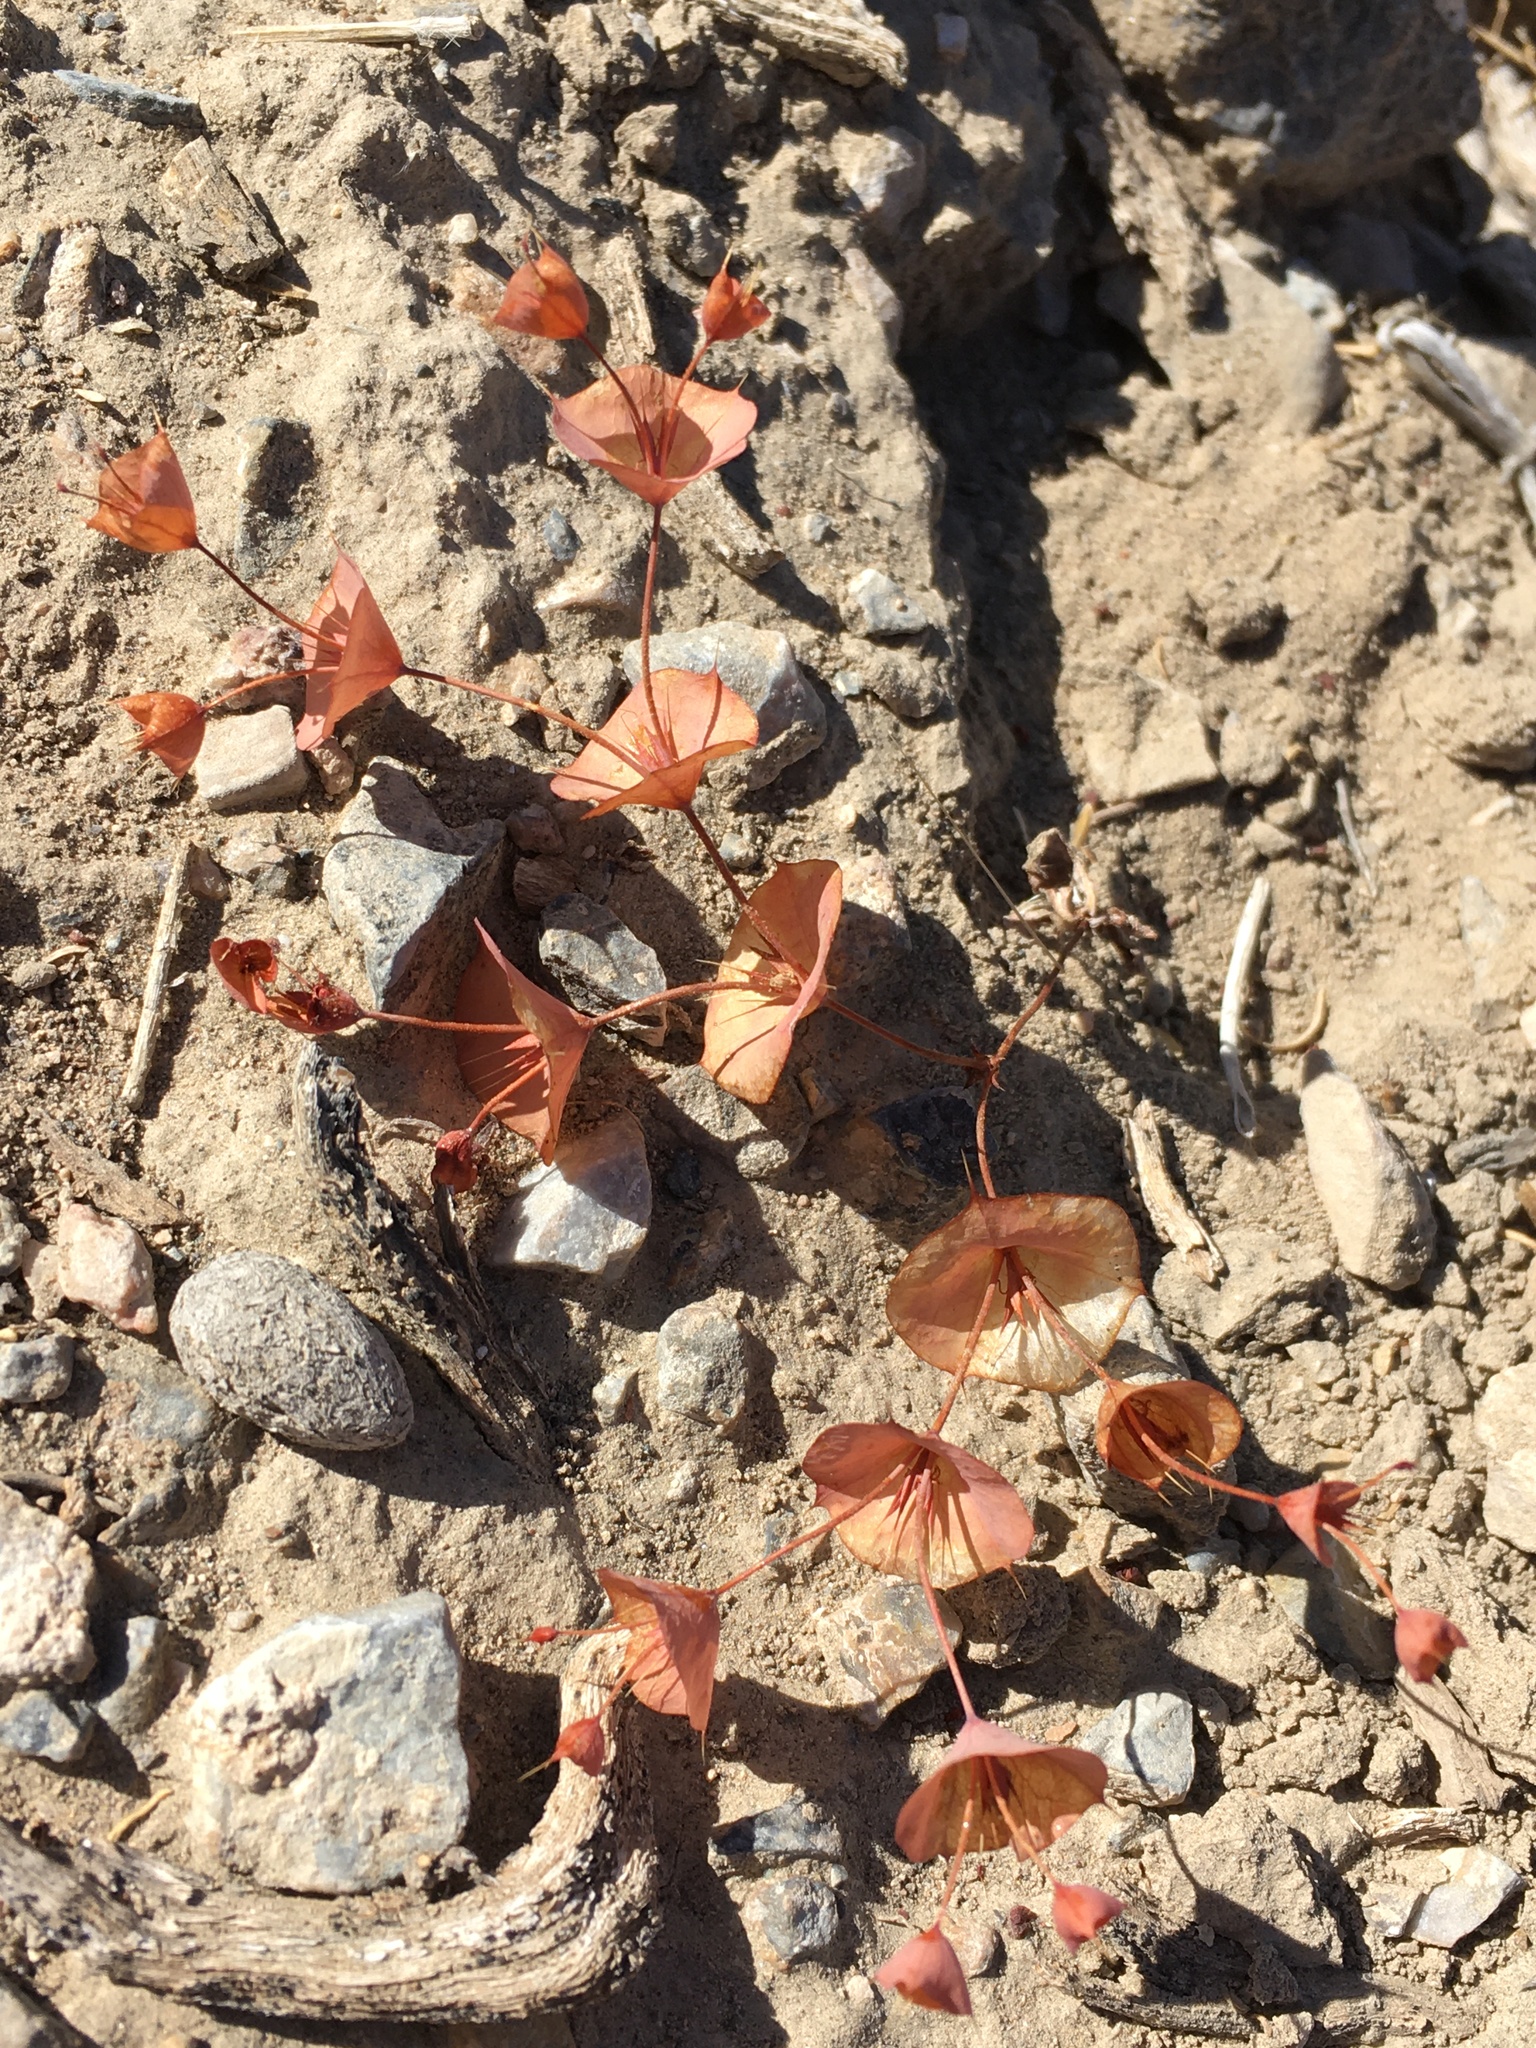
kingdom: Plantae
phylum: Tracheophyta
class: Magnoliopsida
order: Caryophyllales
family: Polygonaceae
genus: Oxytheca
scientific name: Oxytheca perfoliata
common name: Round-leaf puncturebract
